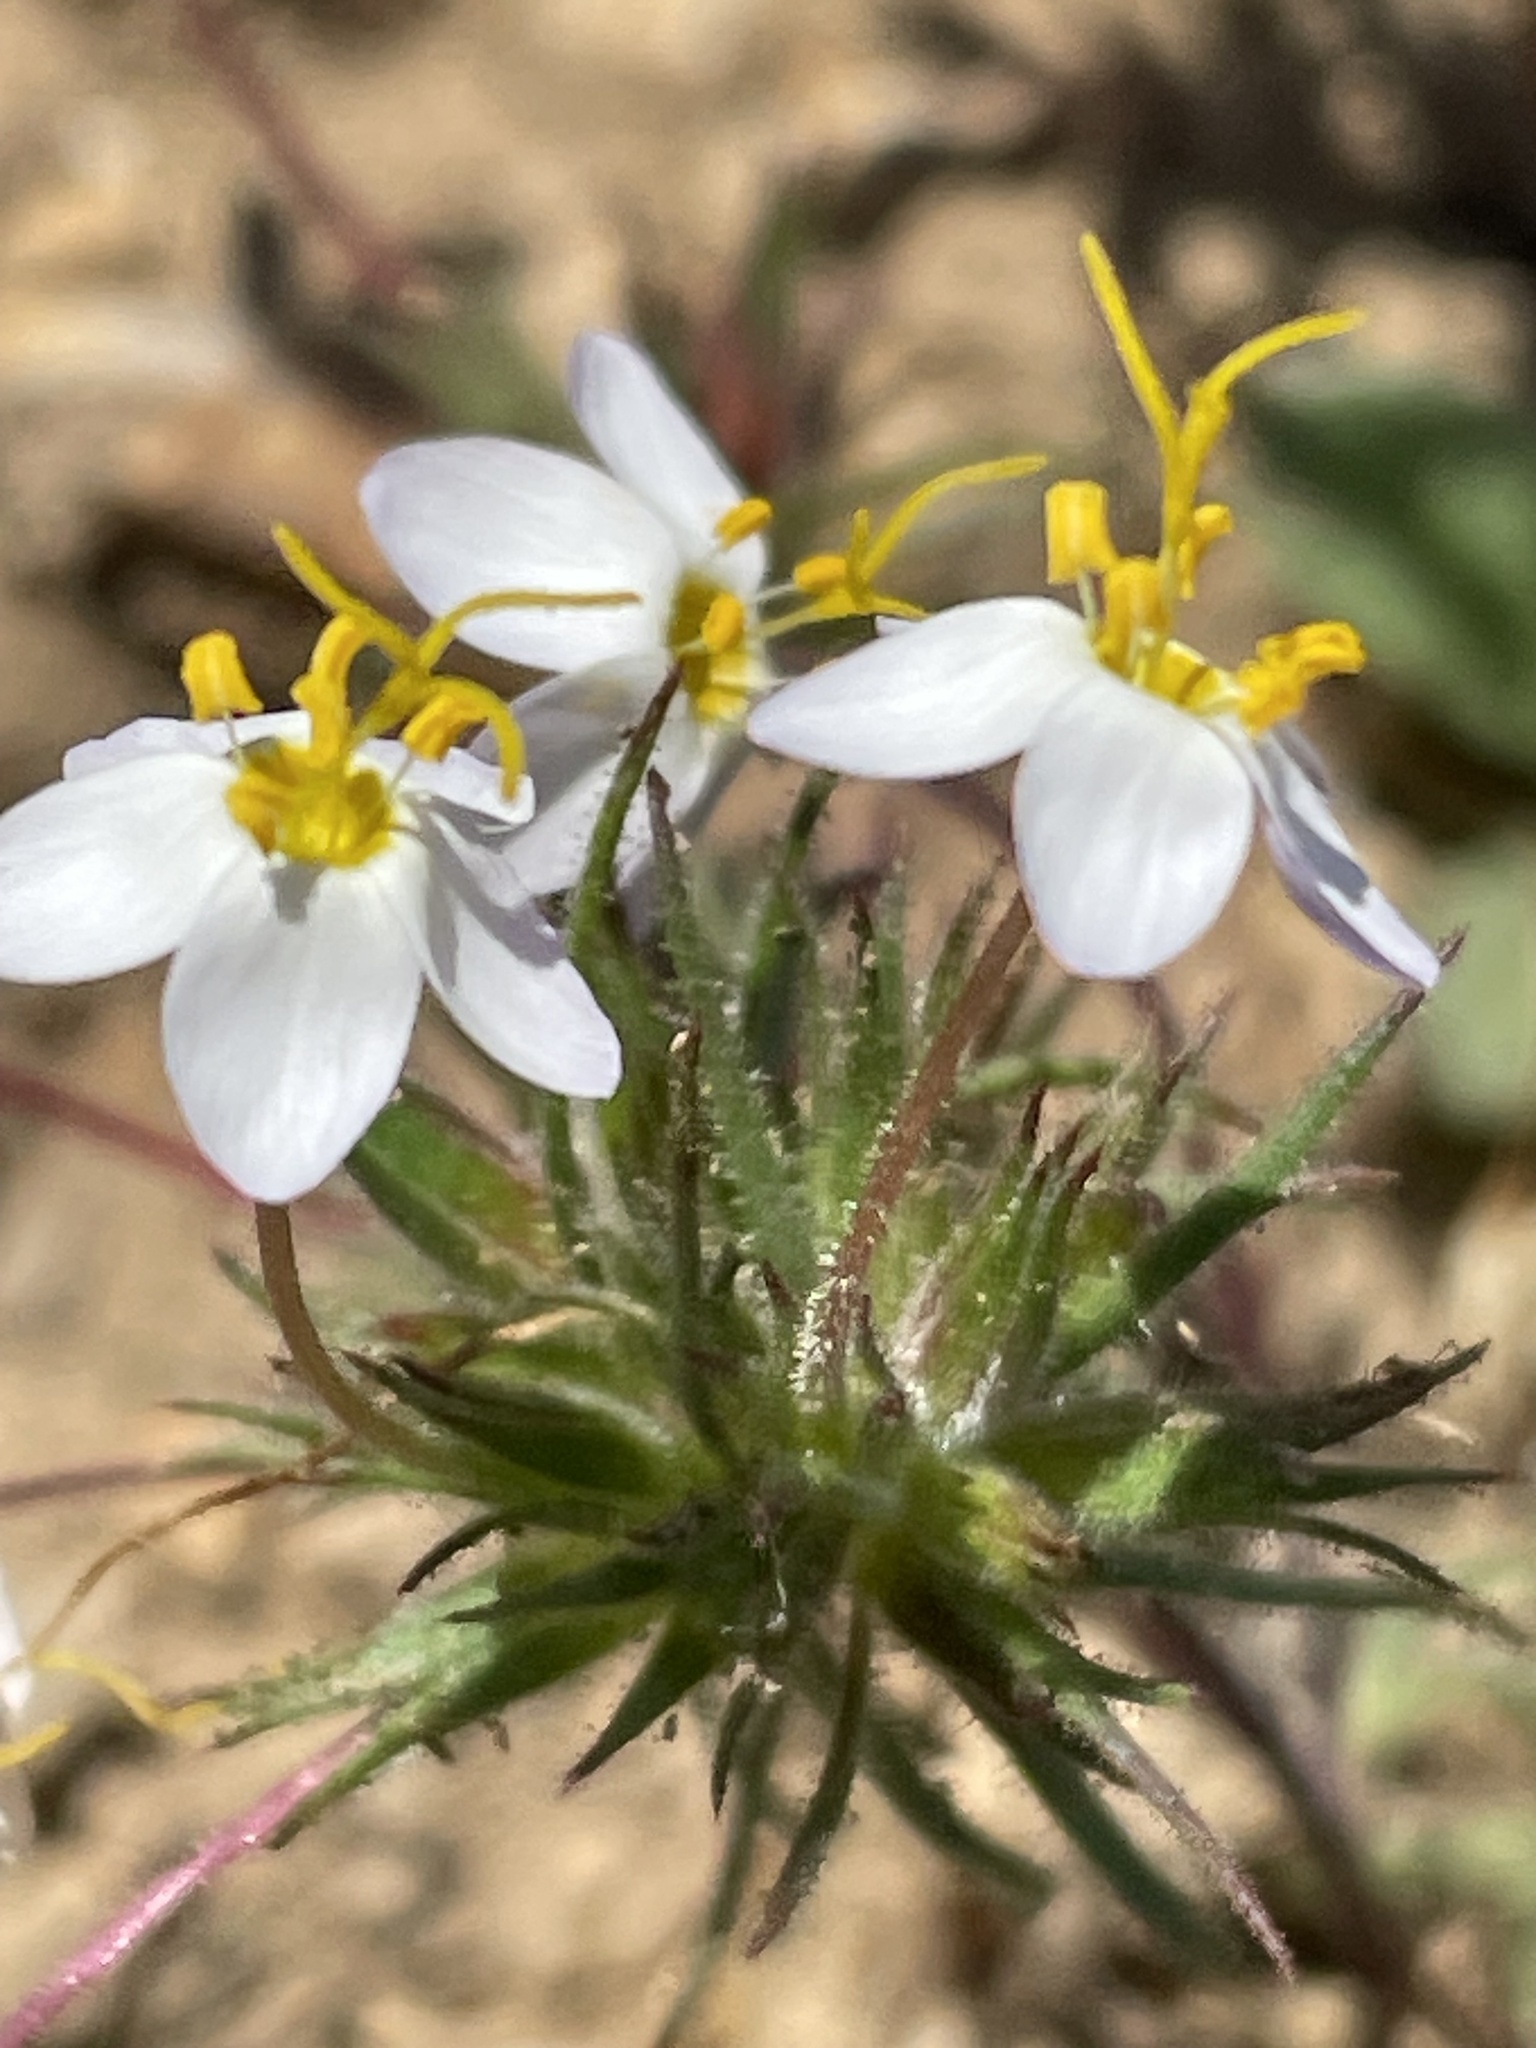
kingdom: Plantae
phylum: Tracheophyta
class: Magnoliopsida
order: Ericales
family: Polemoniaceae
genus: Leptosiphon
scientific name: Leptosiphon parviflorus
